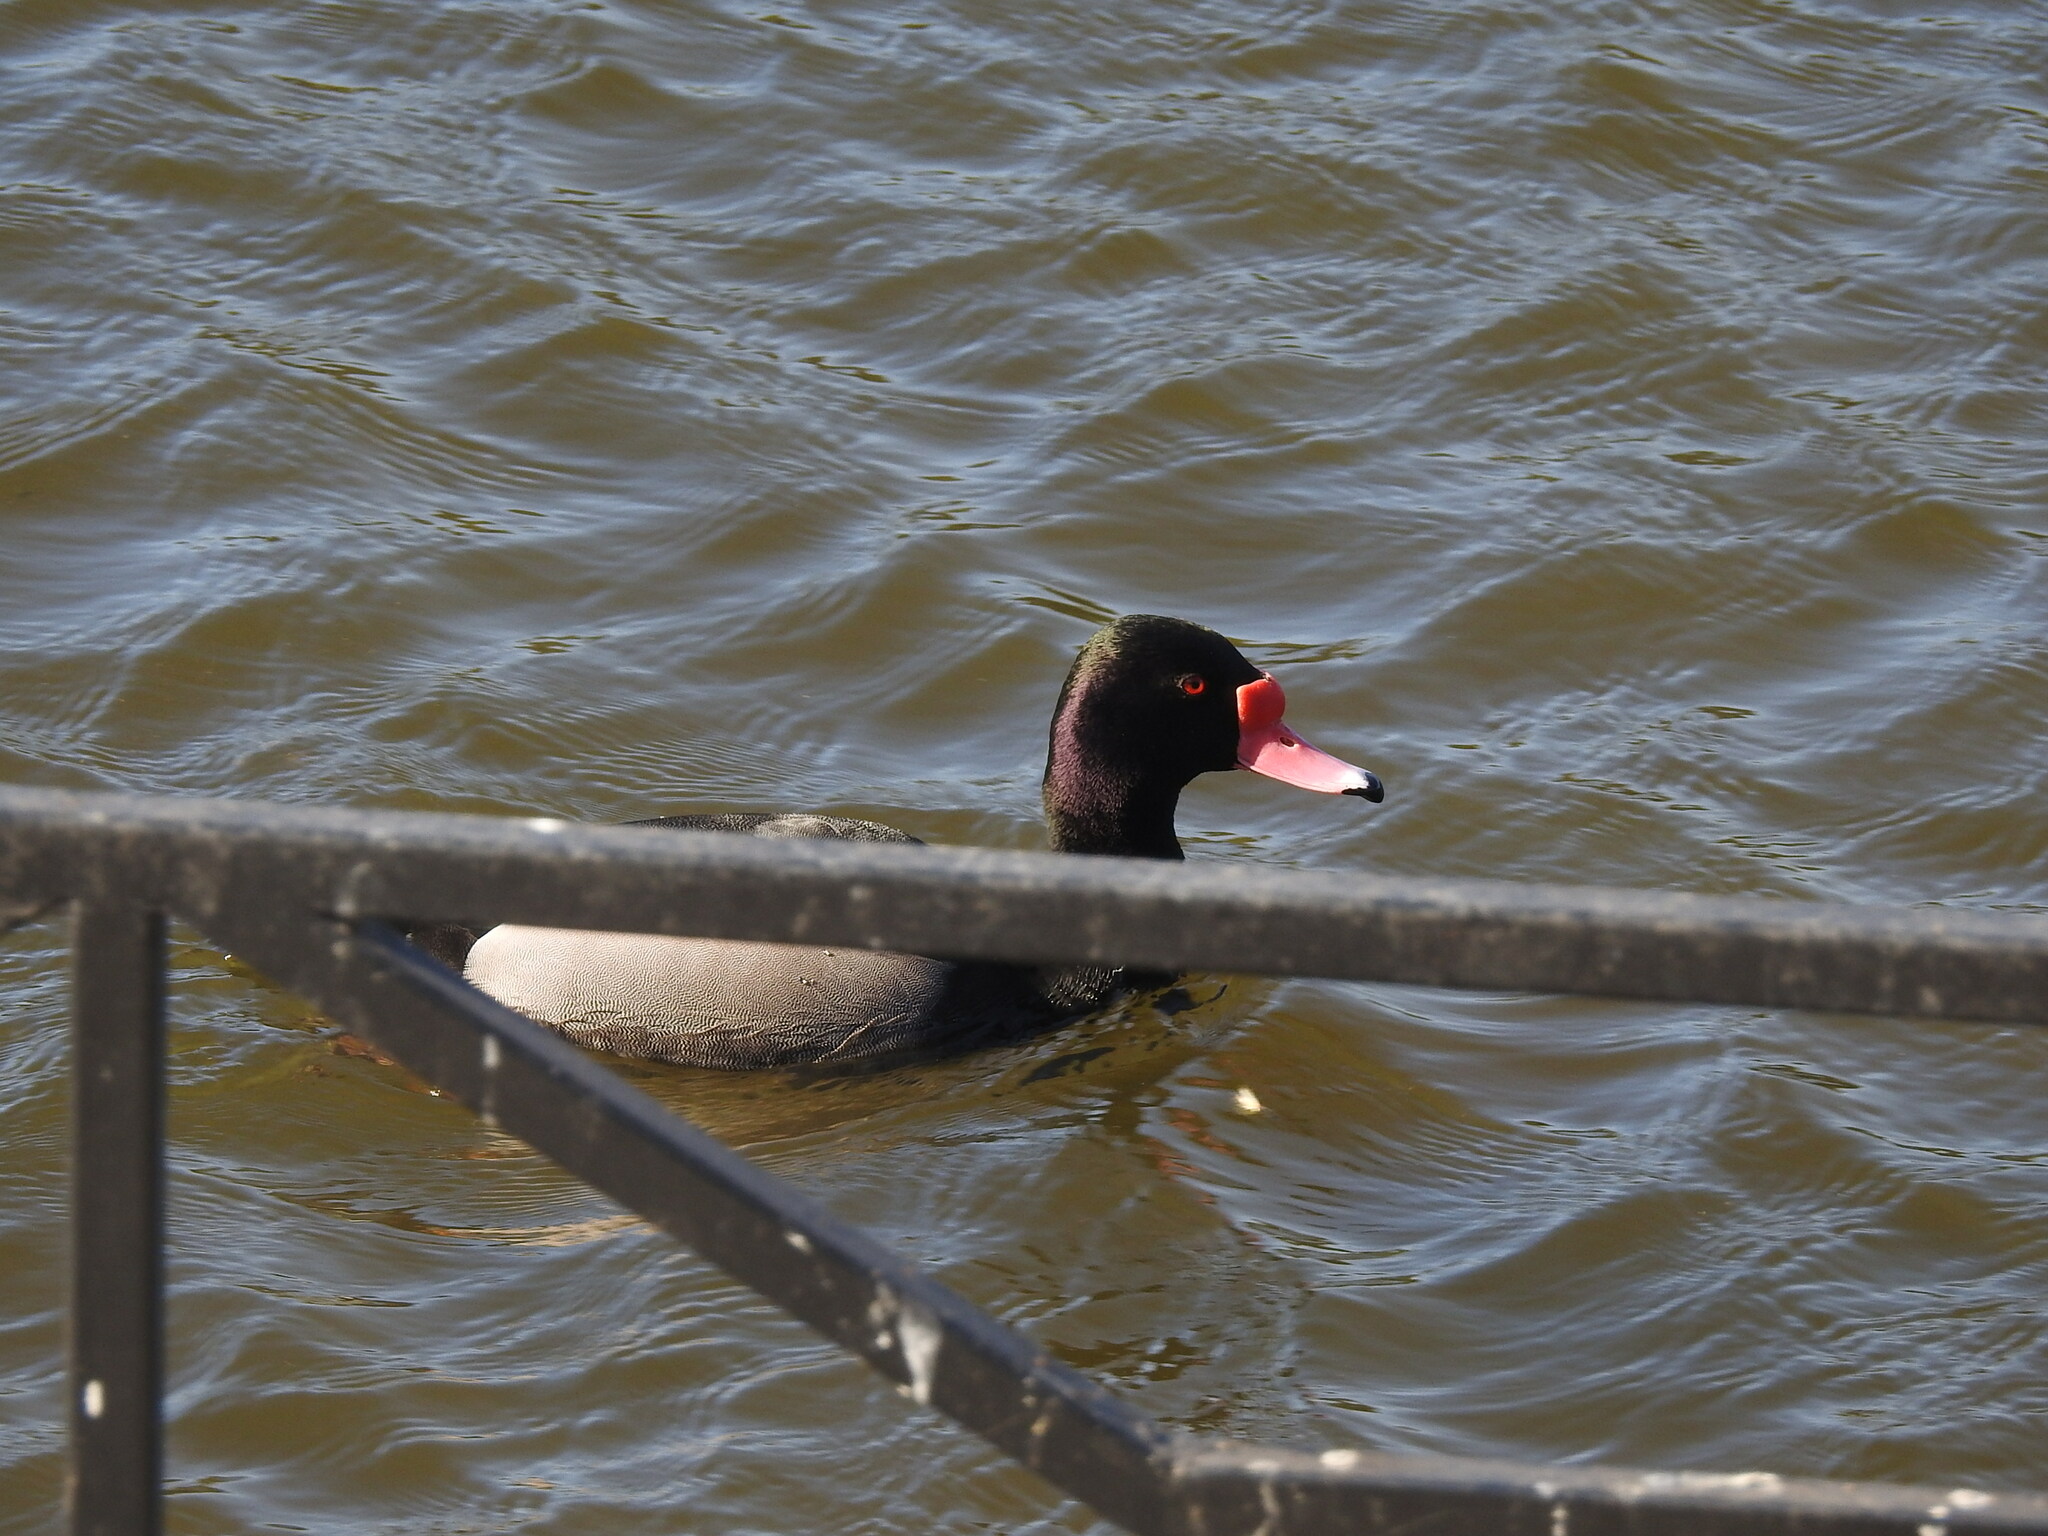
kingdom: Animalia
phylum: Chordata
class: Aves
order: Anseriformes
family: Anatidae
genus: Netta
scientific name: Netta peposaca
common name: Rosy-billed pochard
